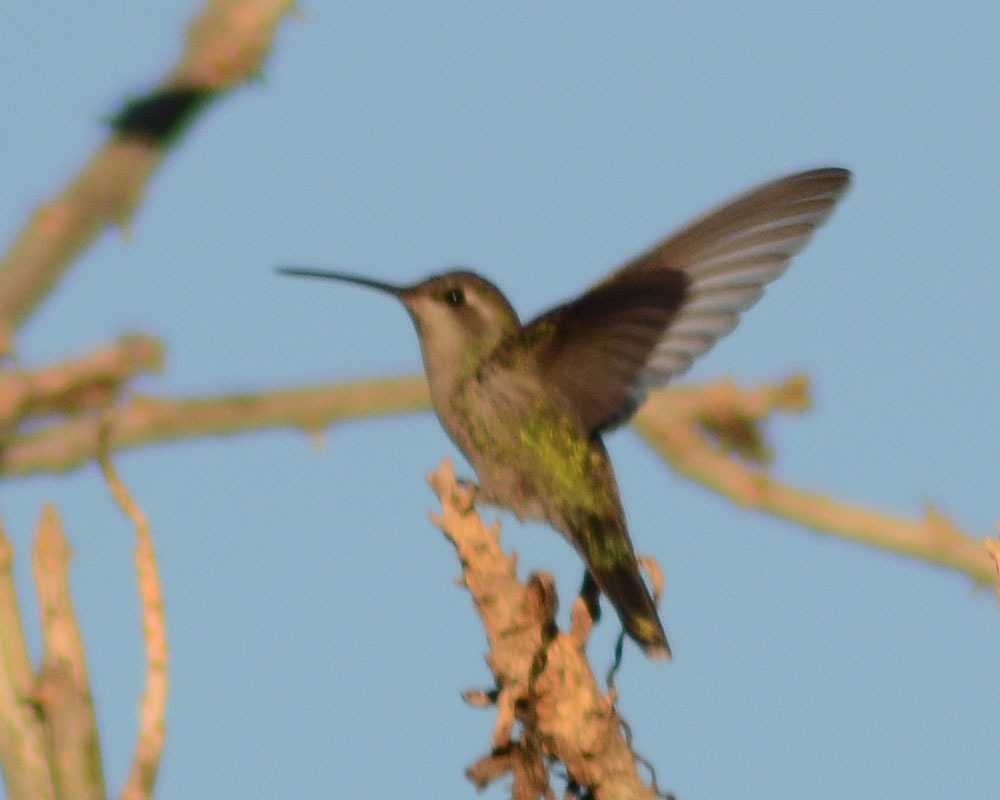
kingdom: Animalia
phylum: Chordata
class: Aves
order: Apodiformes
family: Trochilidae
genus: Cynanthus
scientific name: Cynanthus latirostris
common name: Broad-billed hummingbird
